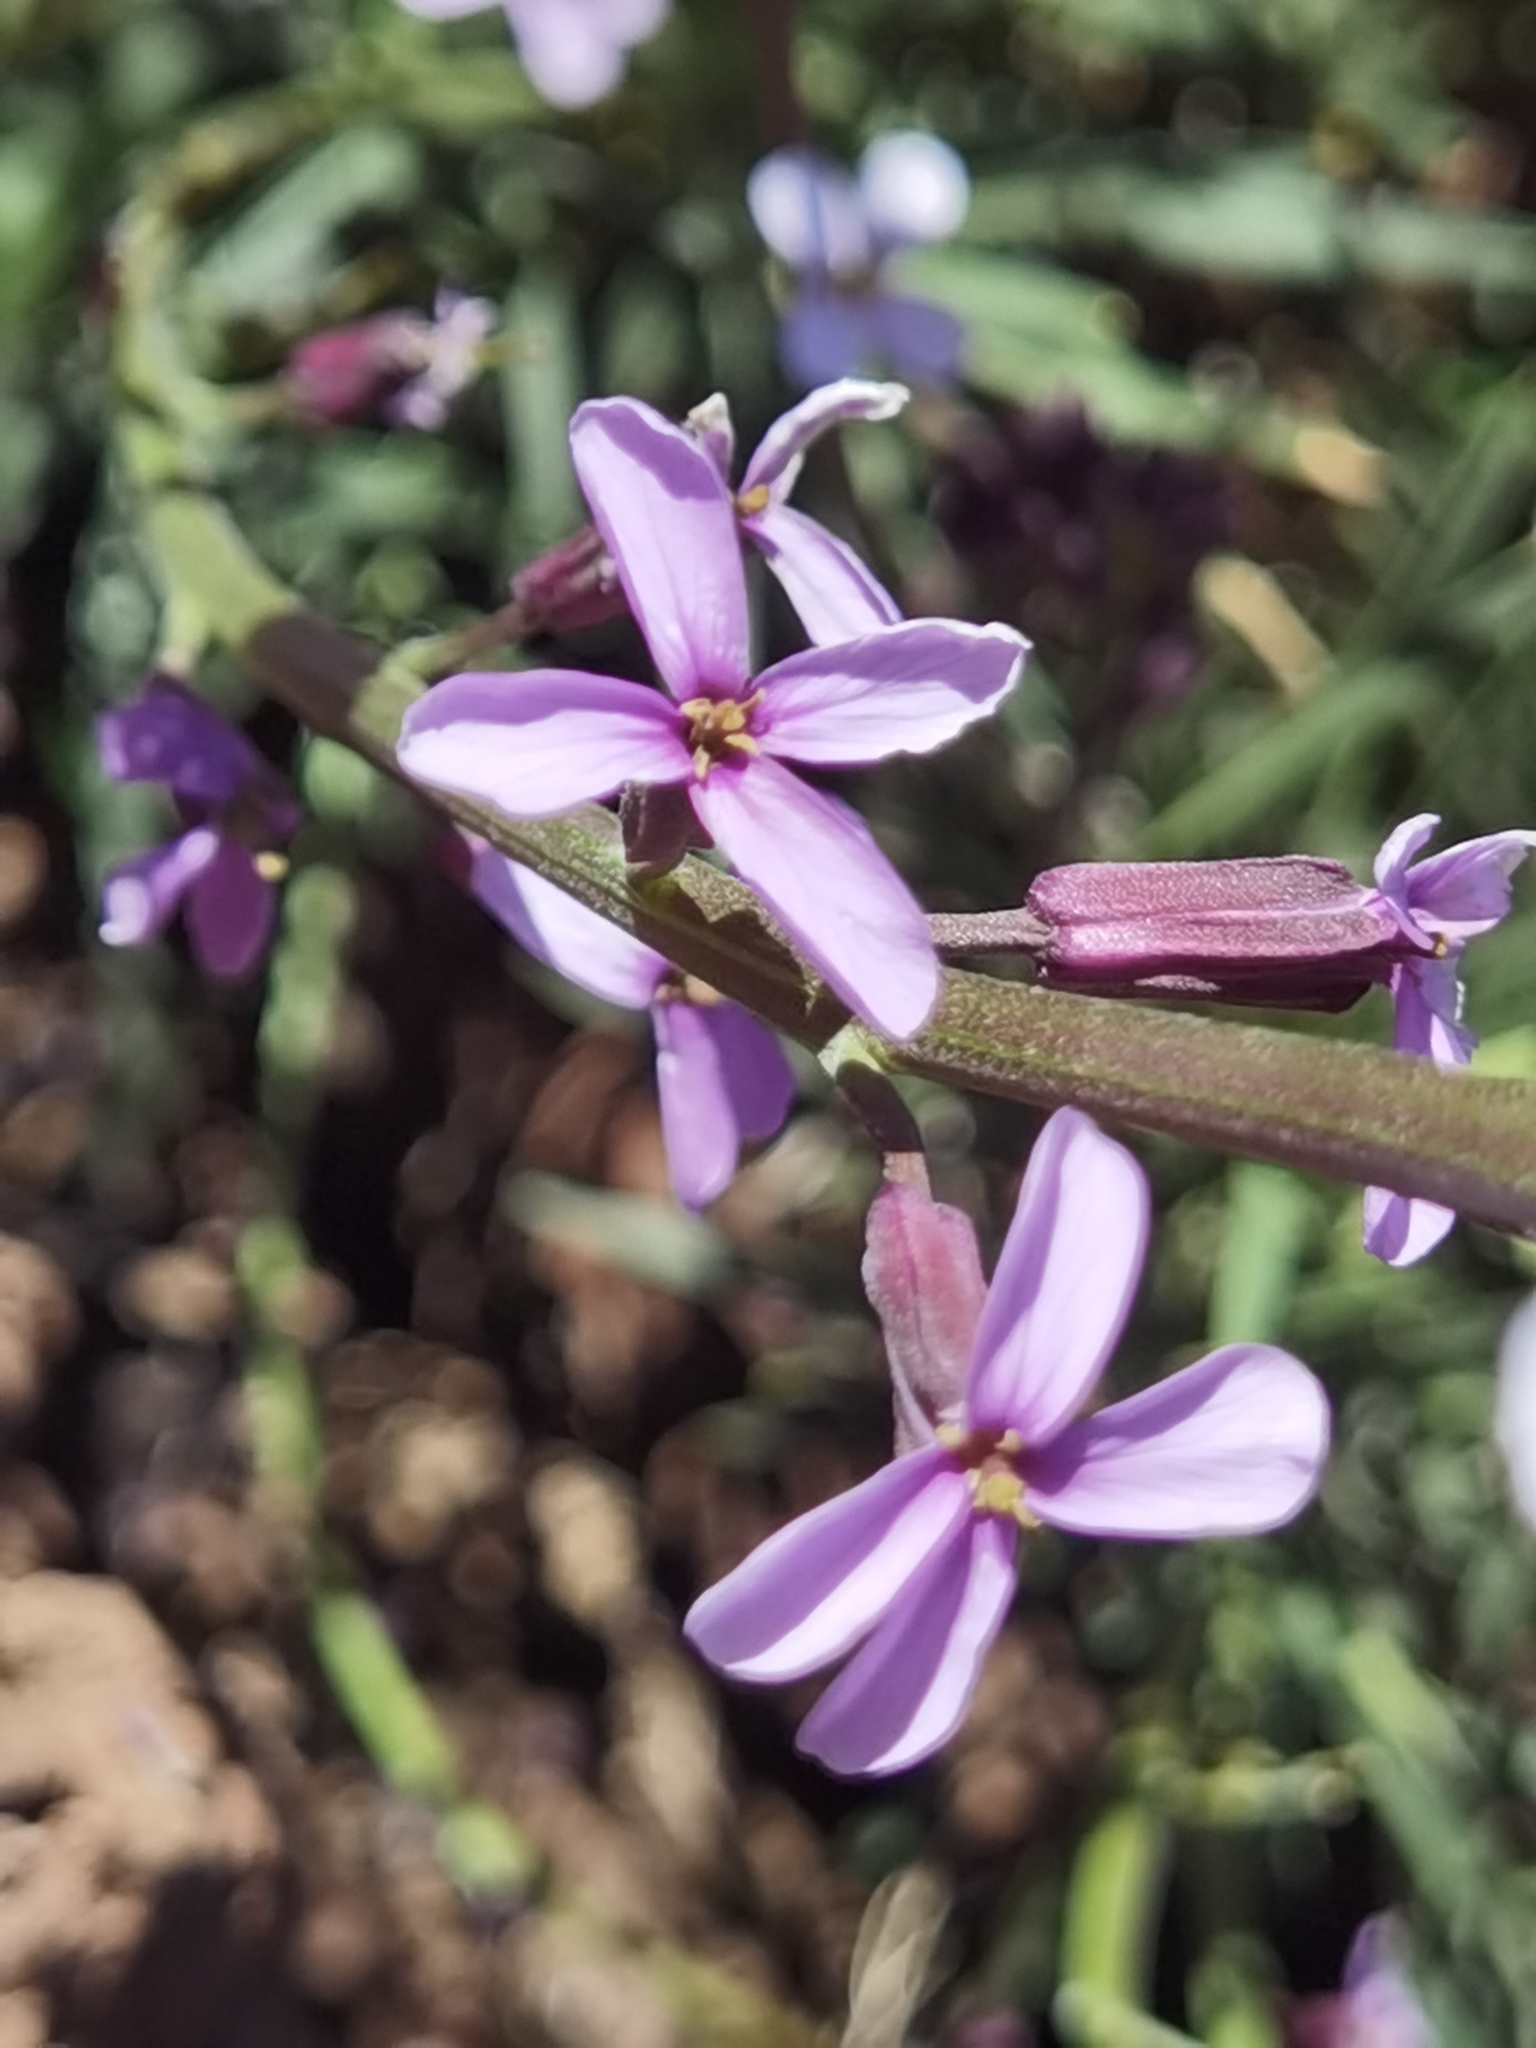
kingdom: Plantae
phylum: Tracheophyta
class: Magnoliopsida
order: Brassicales
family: Brassicaceae
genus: Erysimum
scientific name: Erysimum scoparium
